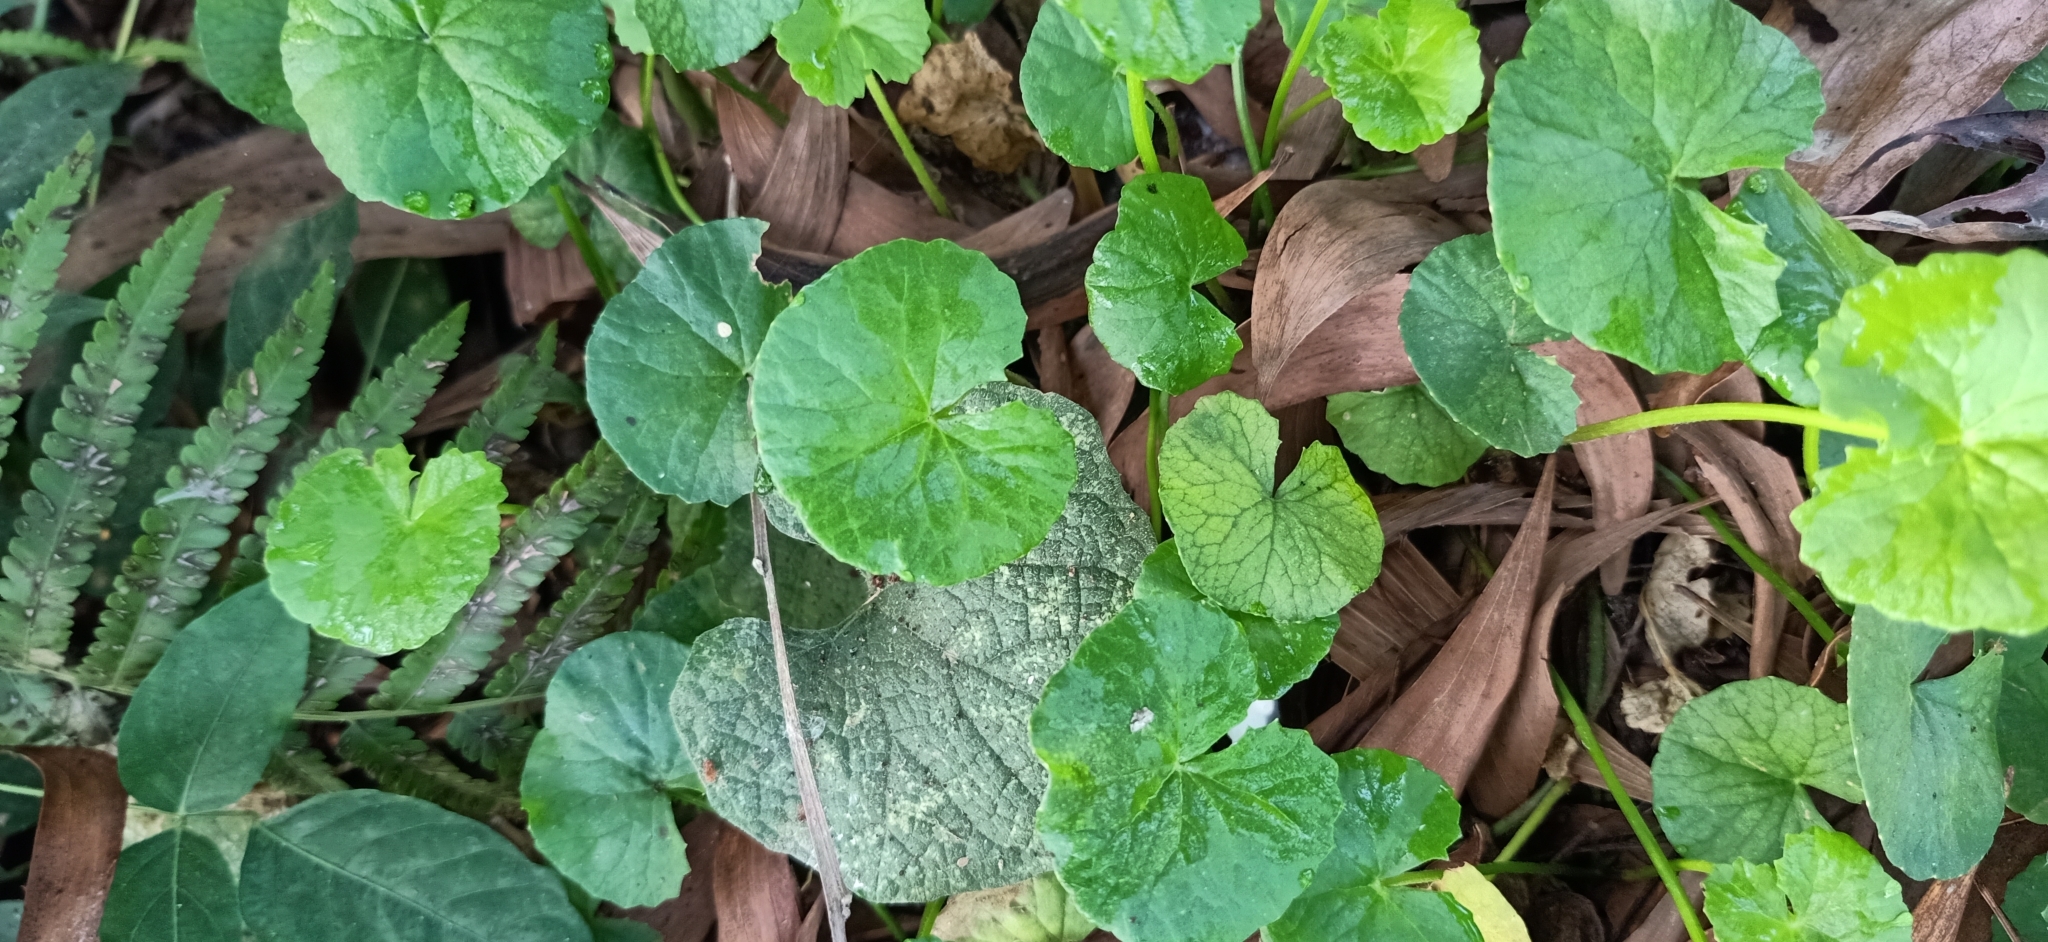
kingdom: Plantae
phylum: Tracheophyta
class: Magnoliopsida
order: Apiales
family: Apiaceae
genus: Centella
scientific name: Centella asiatica
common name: Spadeleaf
